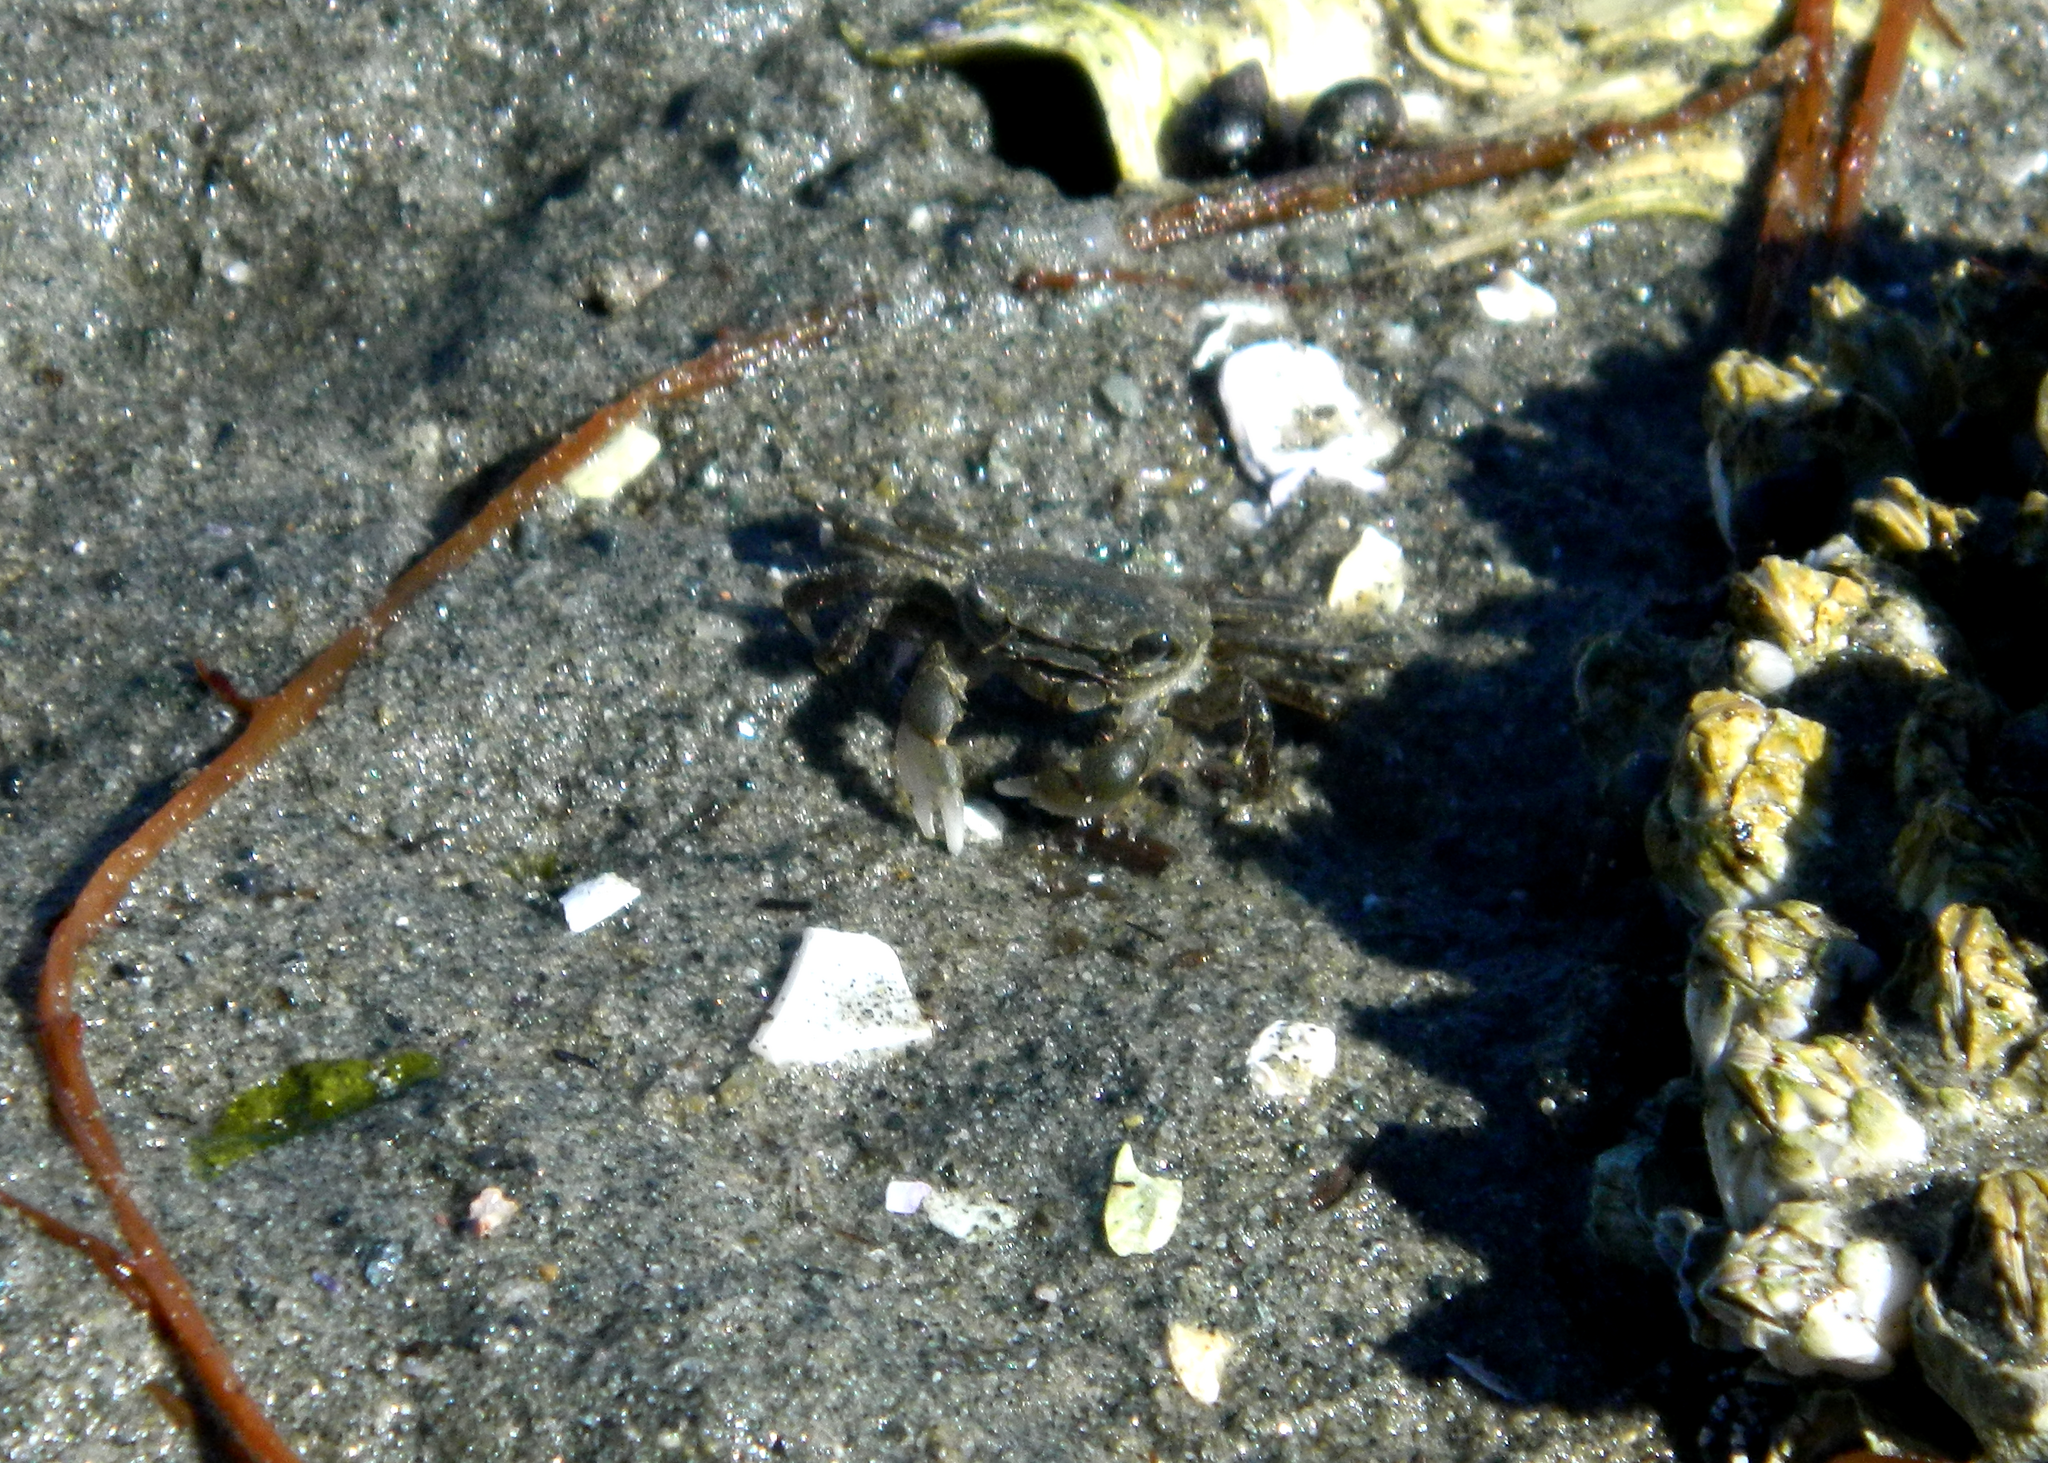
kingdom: Animalia
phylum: Arthropoda
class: Malacostraca
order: Decapoda
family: Varunidae
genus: Hemigrapsus
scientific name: Hemigrapsus oregonensis
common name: Yellow shore crab
